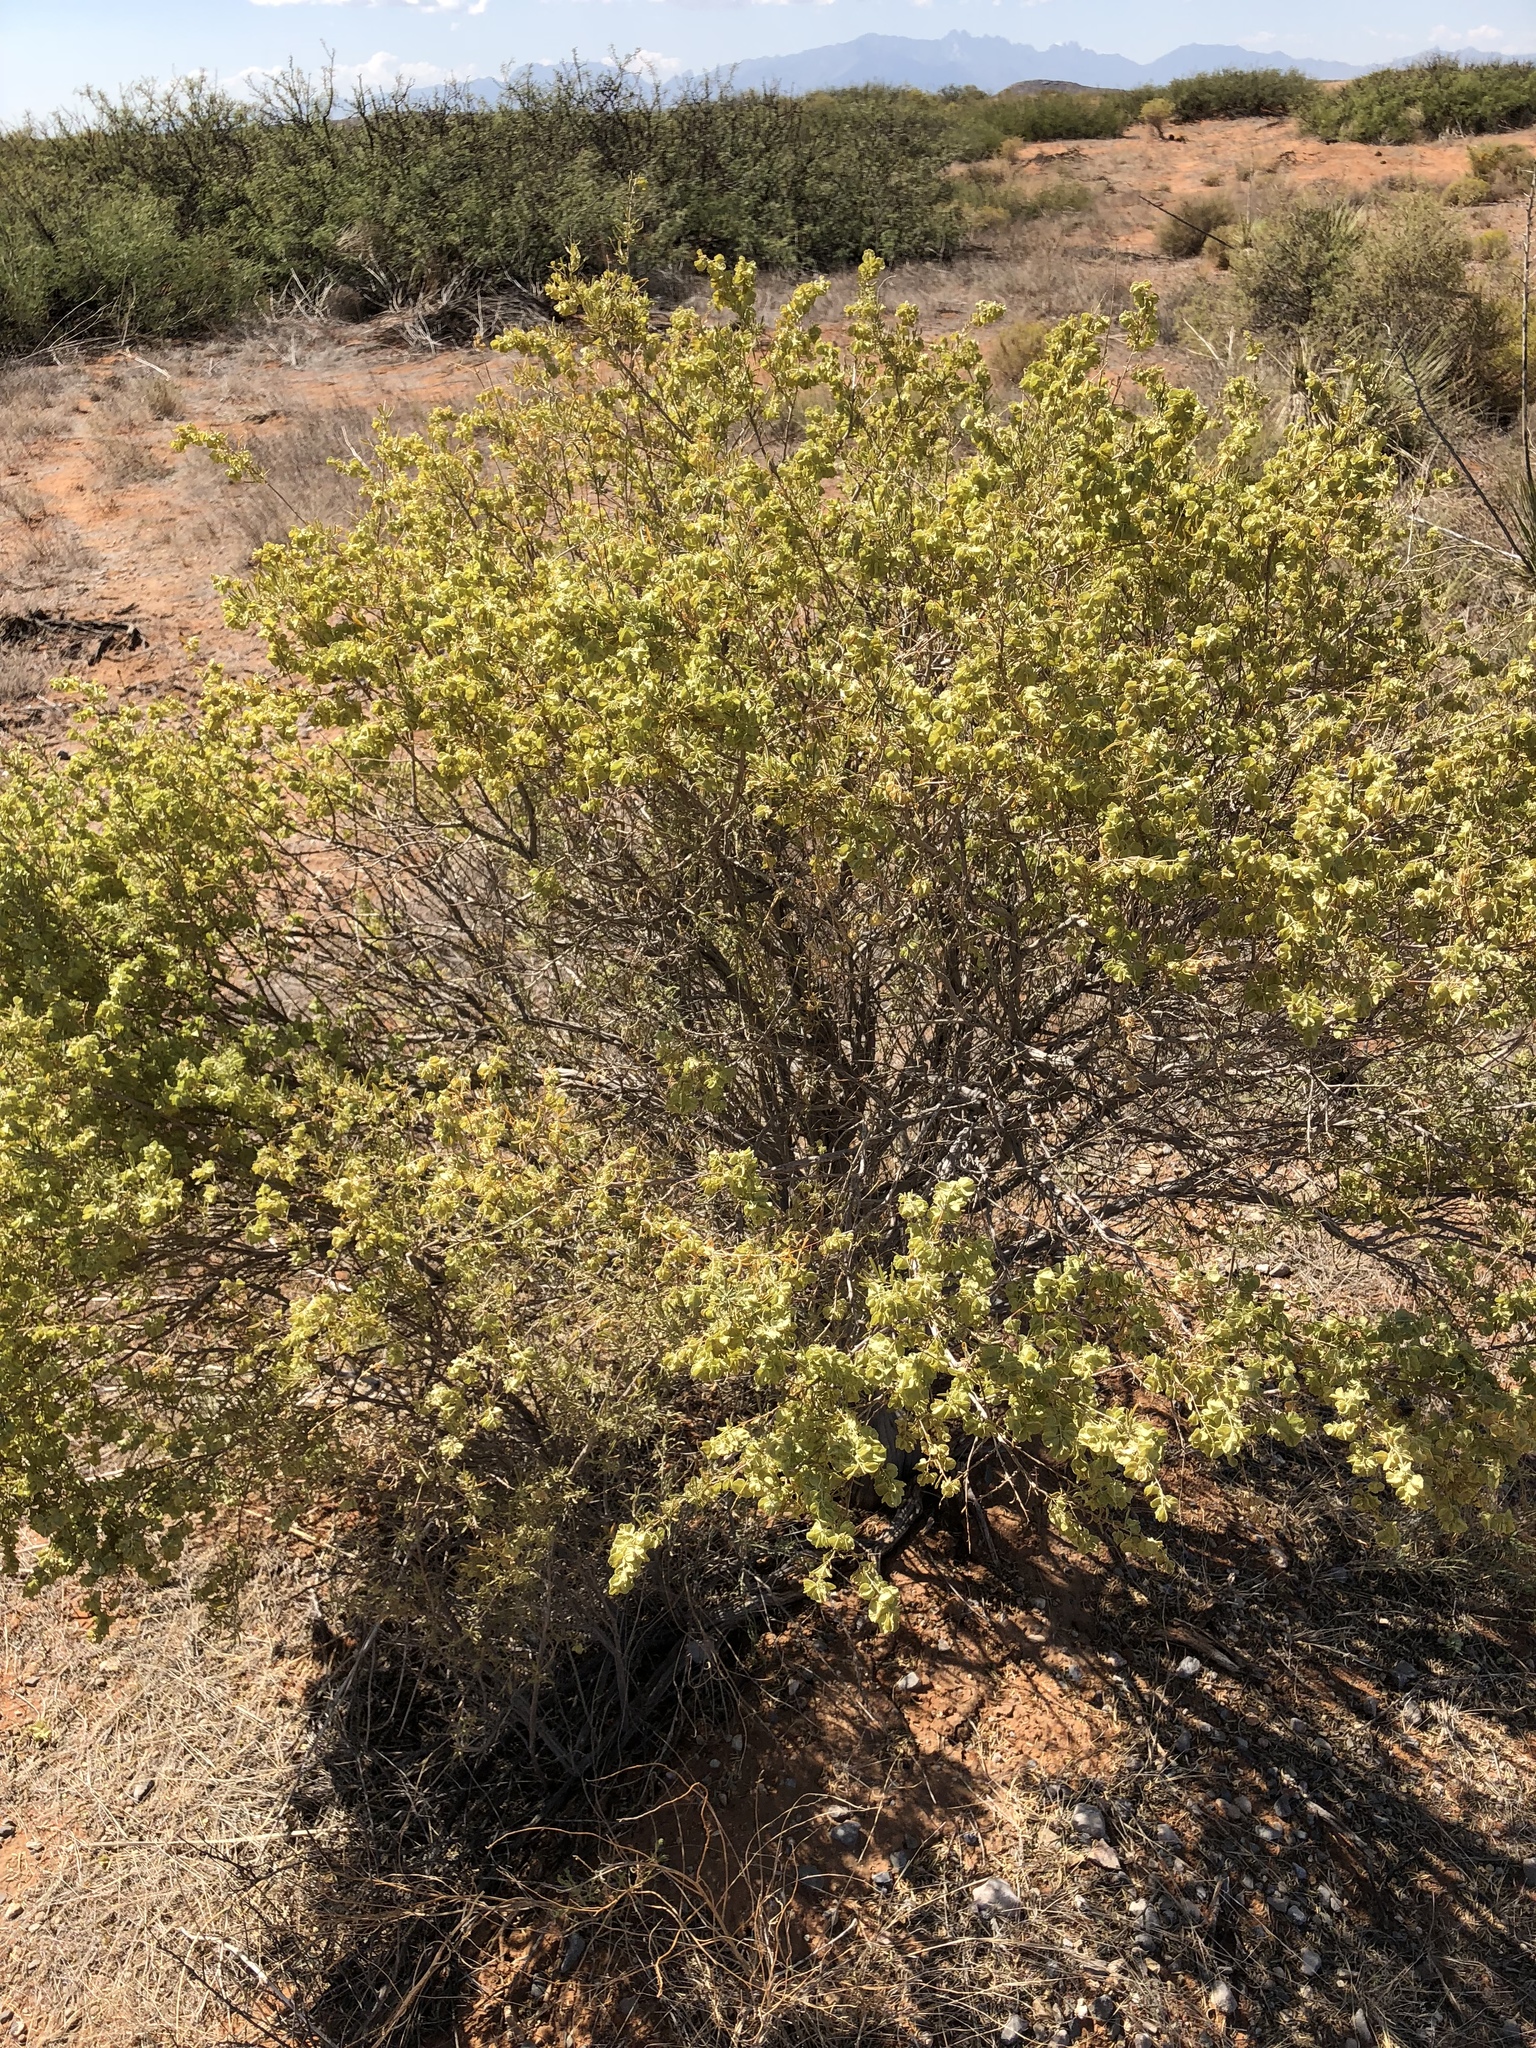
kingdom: Plantae
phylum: Tracheophyta
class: Magnoliopsida
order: Caryophyllales
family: Amaranthaceae
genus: Atriplex
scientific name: Atriplex canescens
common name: Four-wing saltbush
